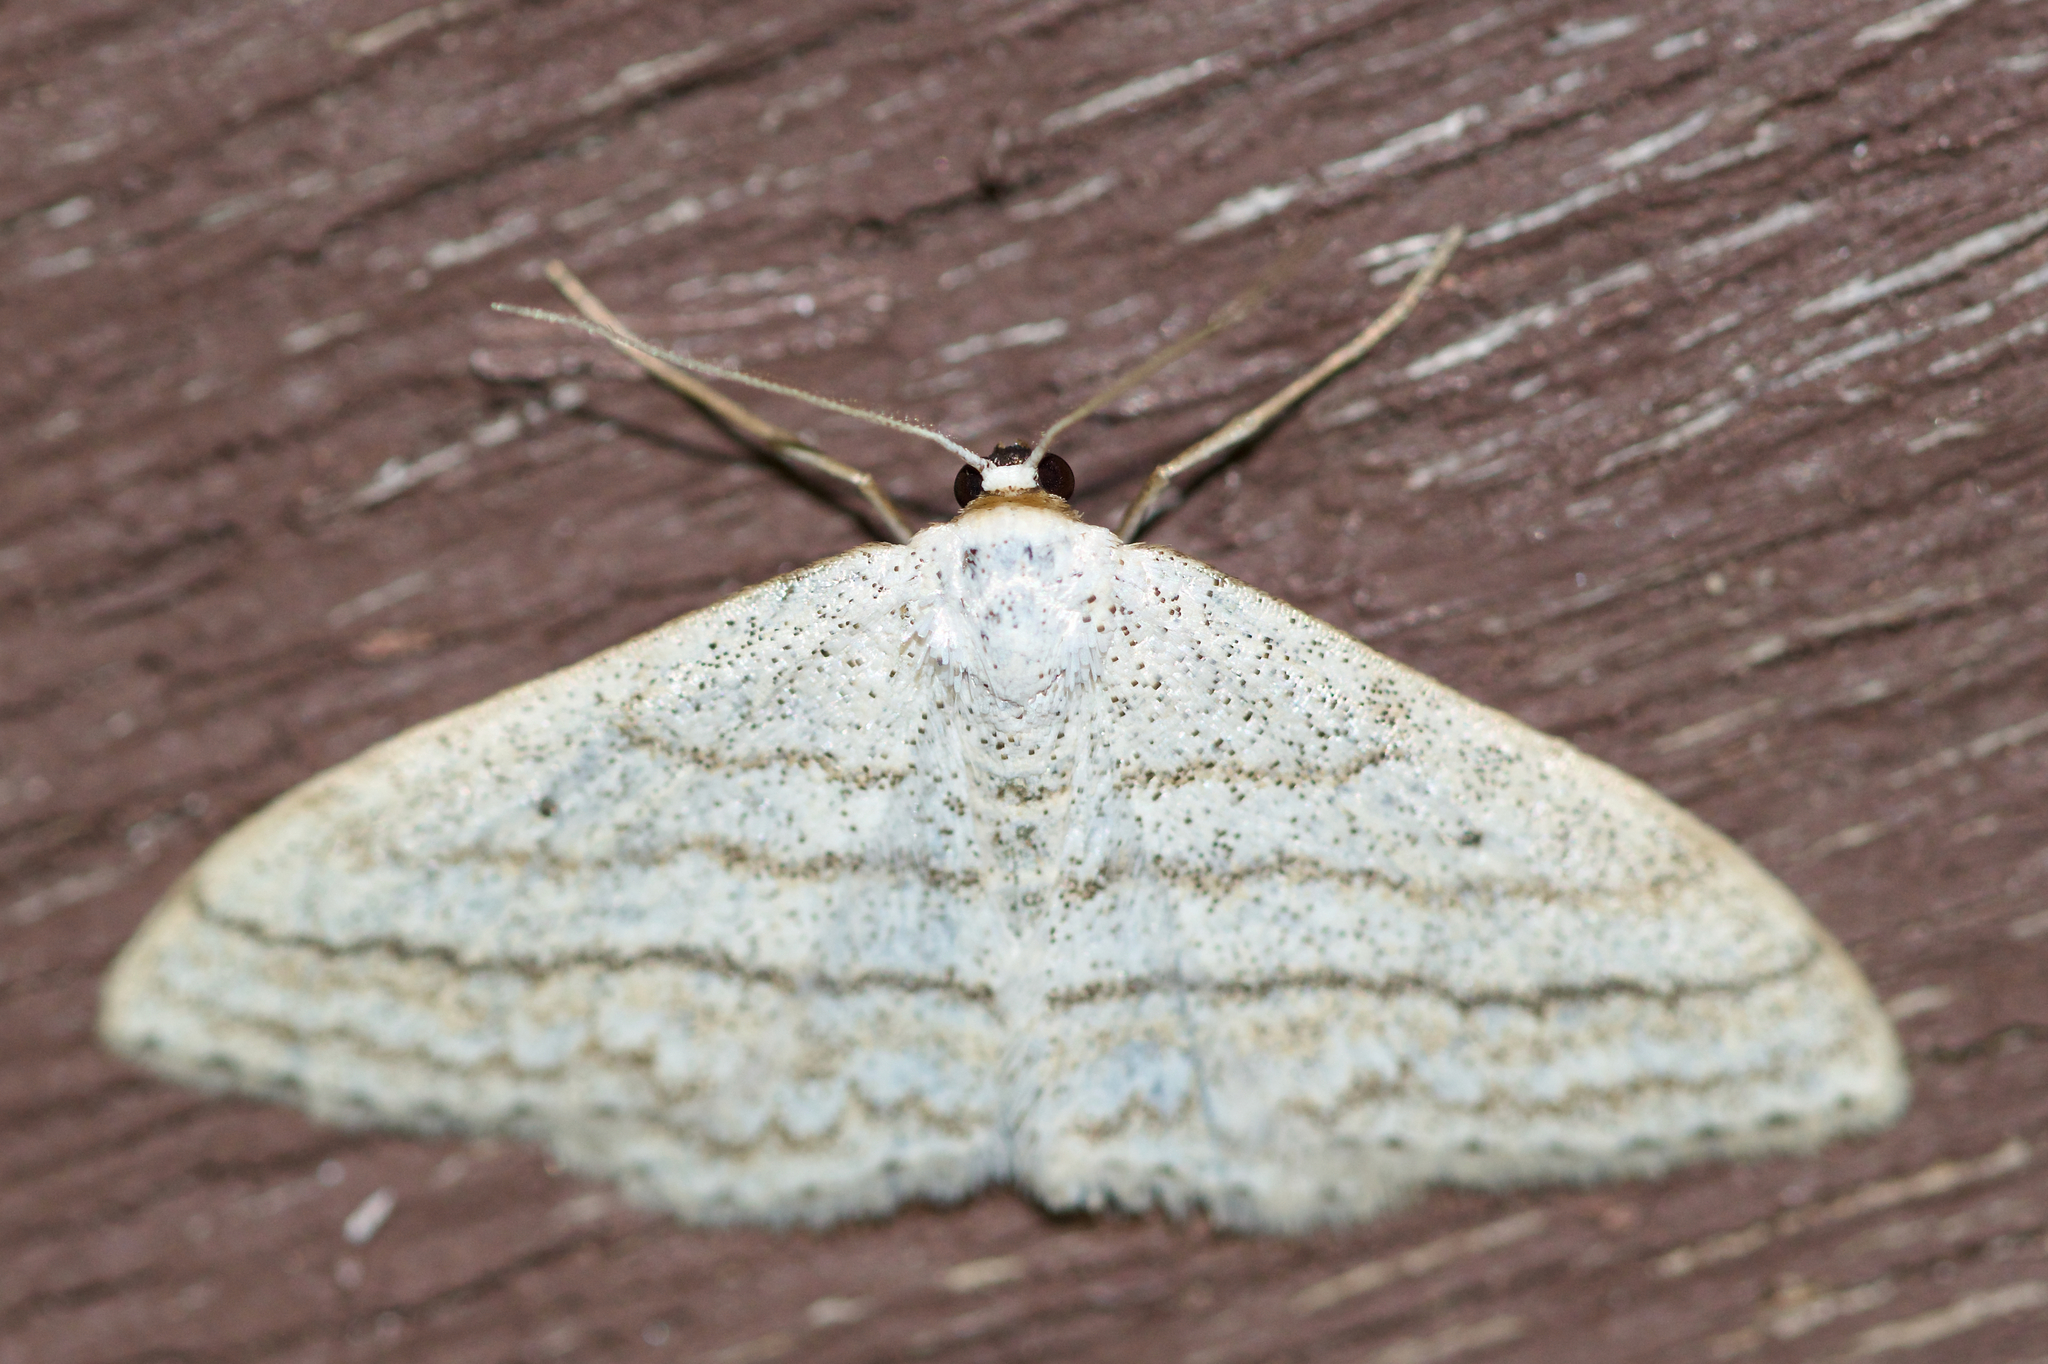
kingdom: Animalia
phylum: Arthropoda
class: Insecta
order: Lepidoptera
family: Geometridae
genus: Scopula
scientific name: Scopula ancellata
